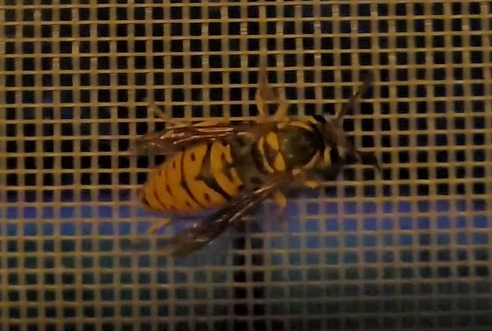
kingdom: Animalia
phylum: Arthropoda
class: Insecta
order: Hymenoptera
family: Vespidae
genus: Vespula
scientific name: Vespula maculifrons
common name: Eastern yellowjacket
